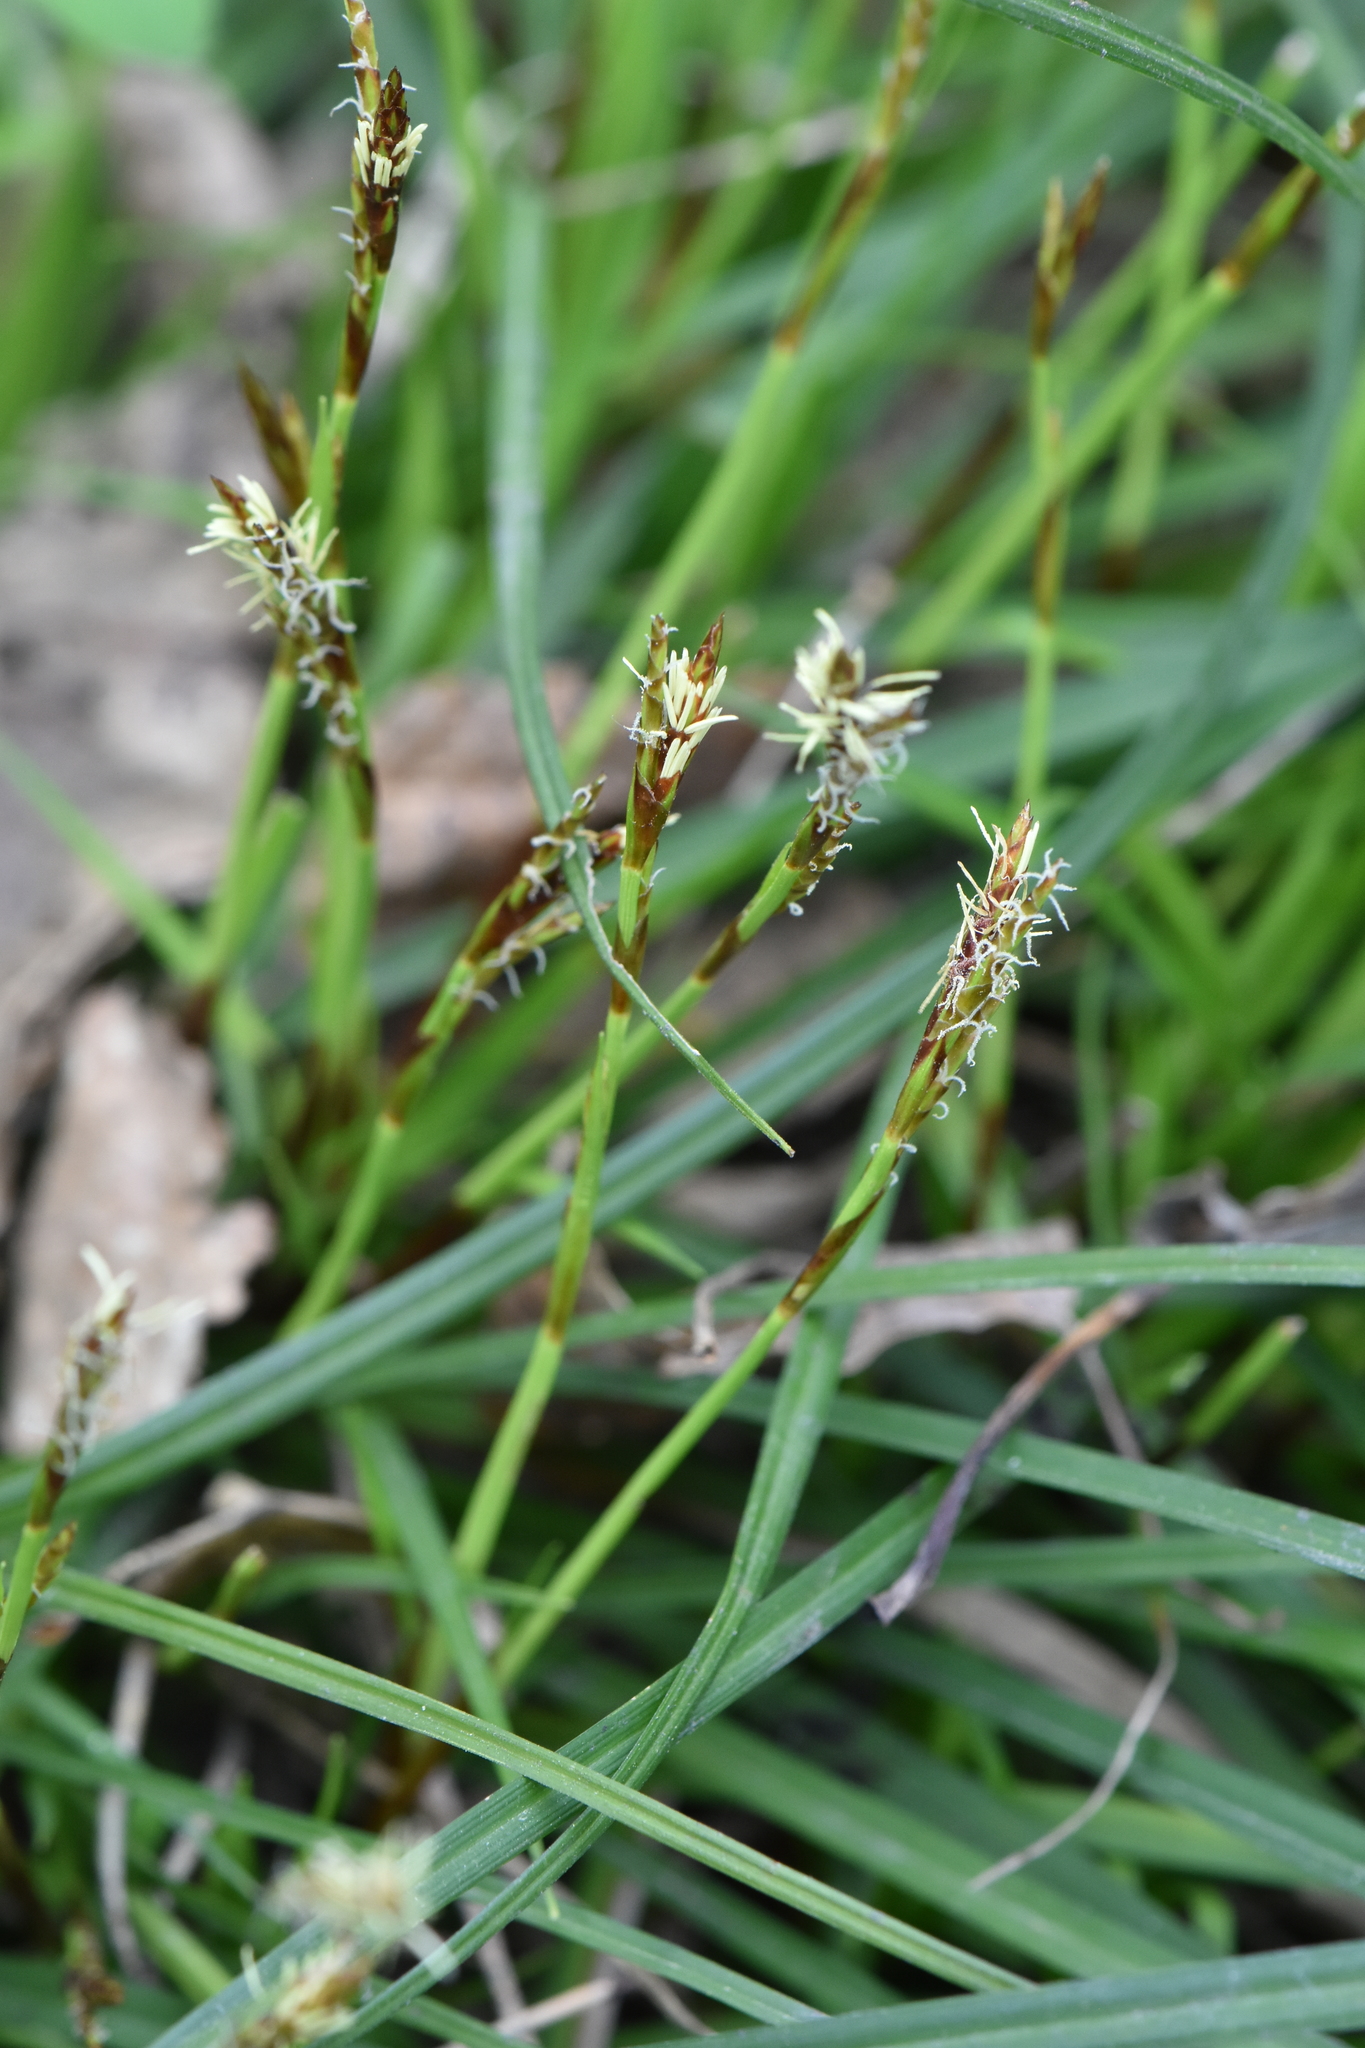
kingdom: Plantae
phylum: Tracheophyta
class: Liliopsida
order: Poales
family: Cyperaceae
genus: Carex
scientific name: Carex digitata
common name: Fingered sedge
